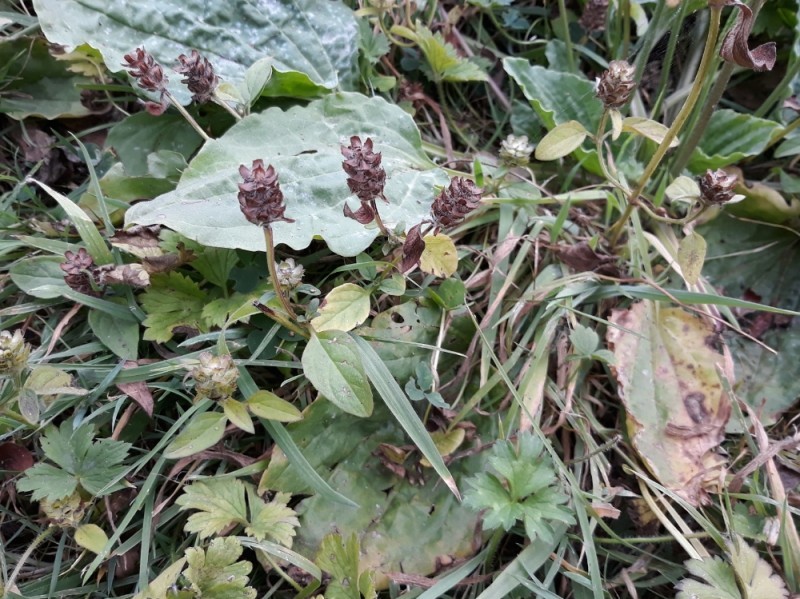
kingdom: Plantae
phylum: Tracheophyta
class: Magnoliopsida
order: Lamiales
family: Lamiaceae
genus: Prunella
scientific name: Prunella vulgaris
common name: Heal-all
